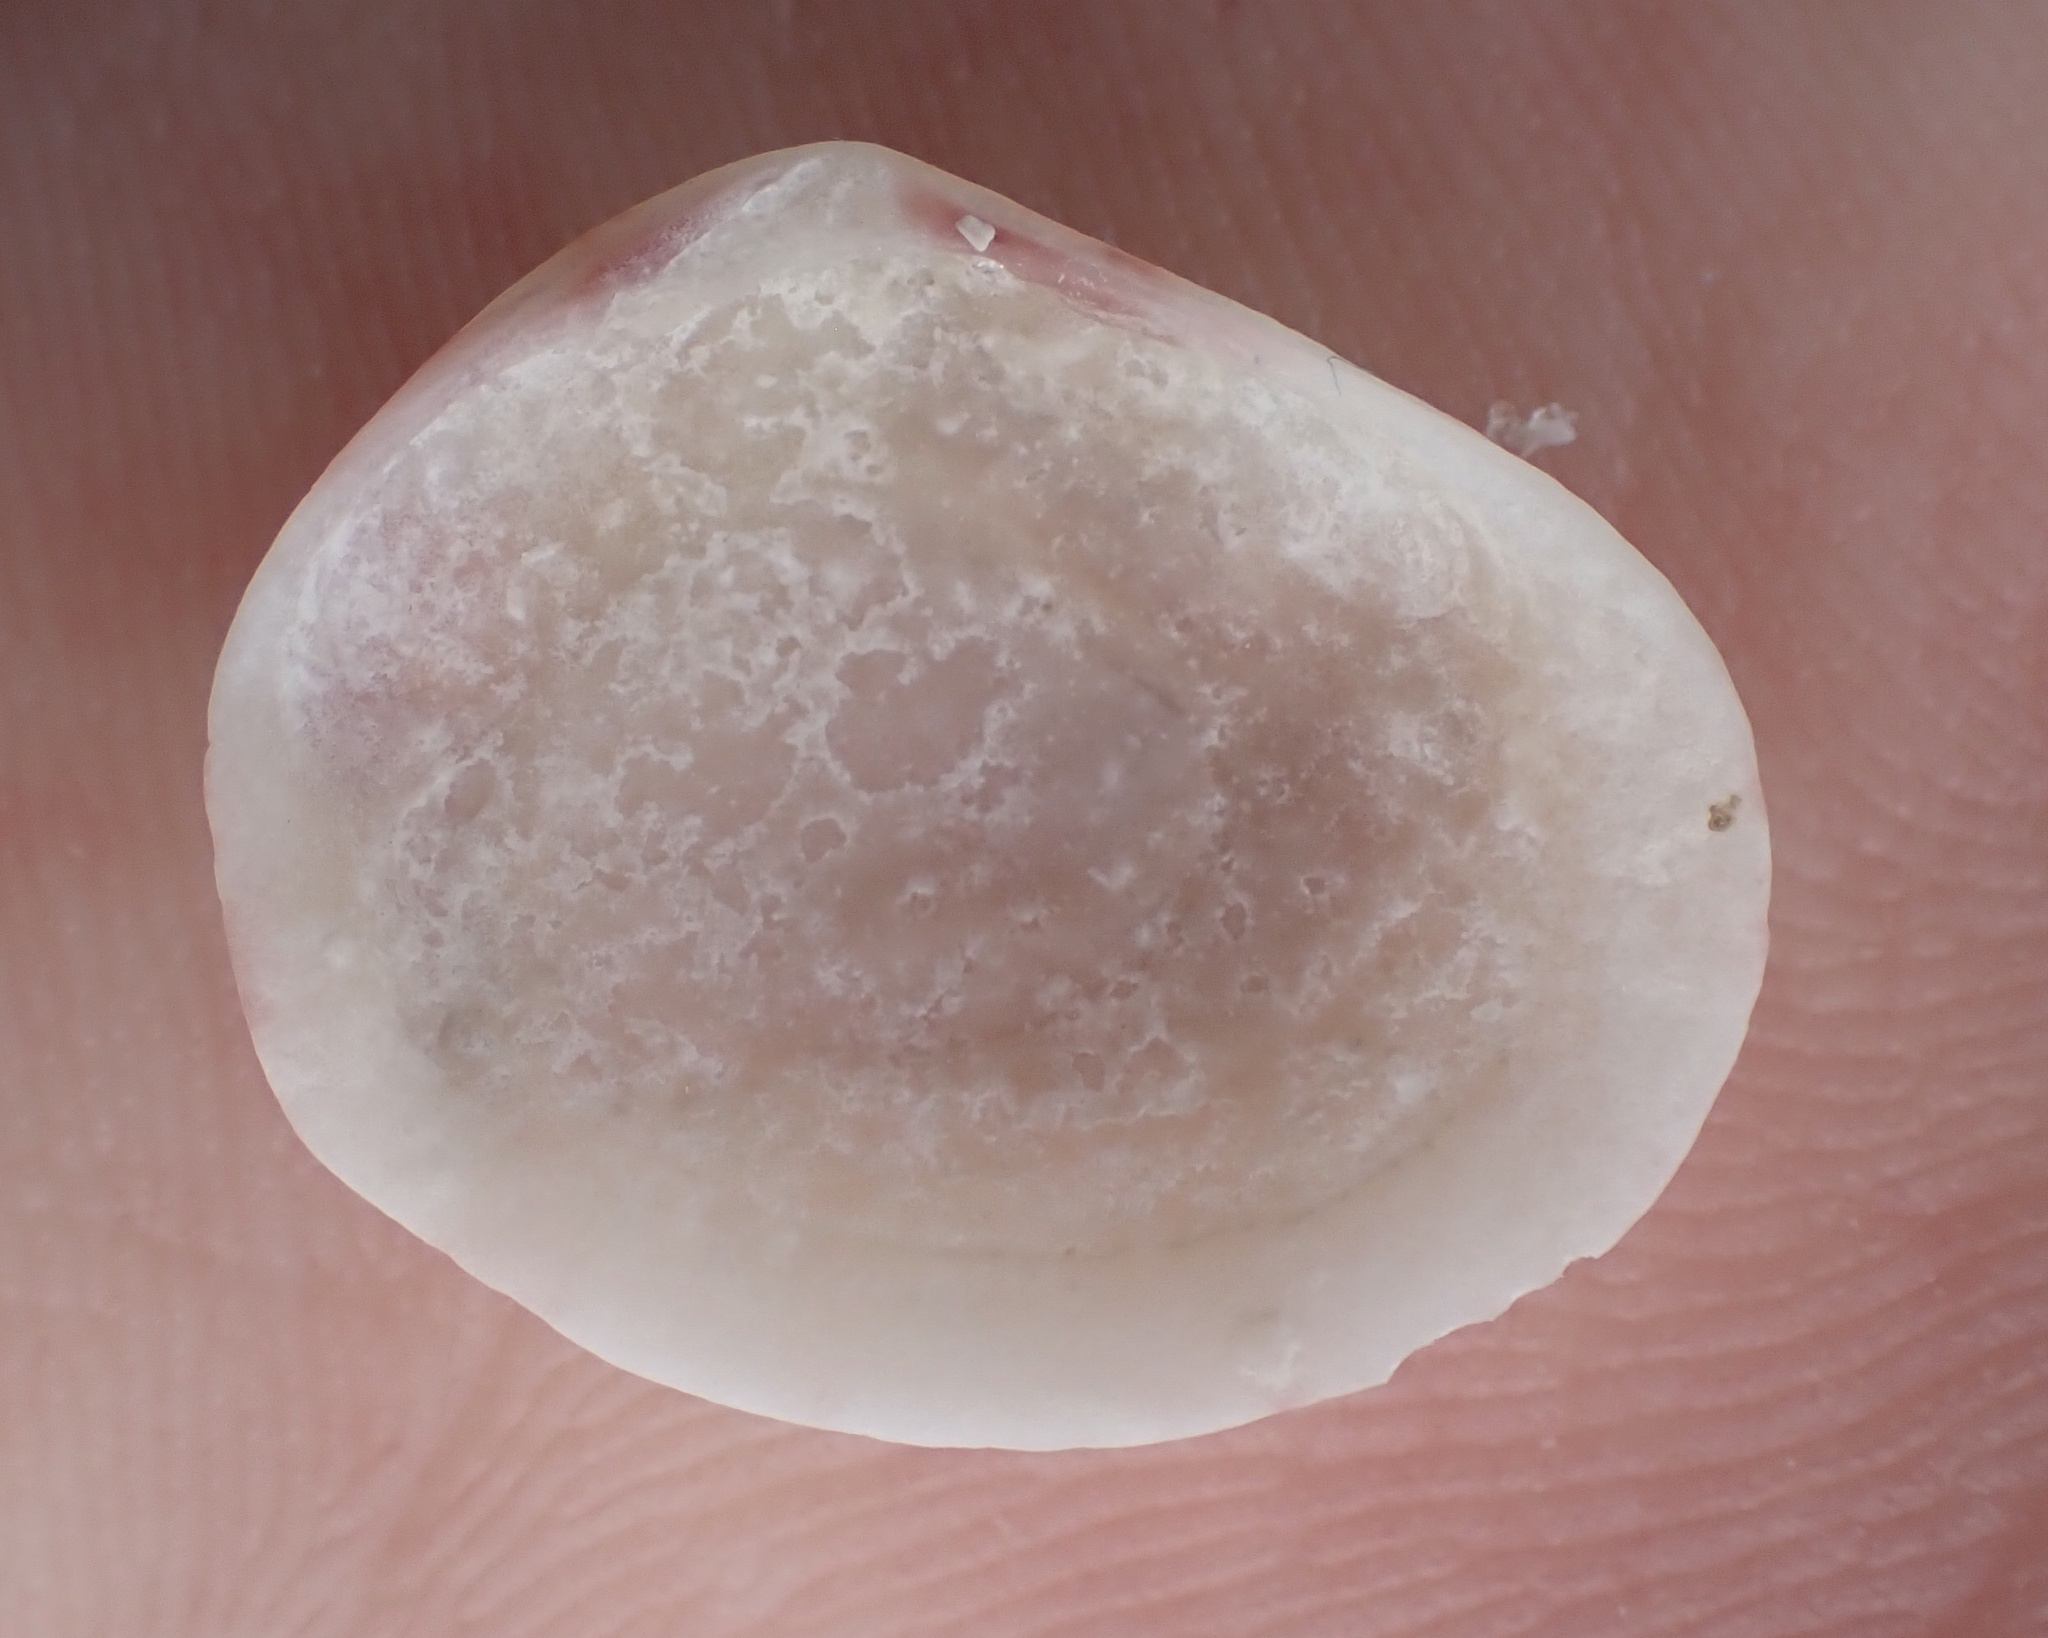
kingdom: Animalia
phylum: Mollusca
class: Bivalvia
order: Cardiida
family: Semelidae
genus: Semele
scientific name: Semele bellastriata
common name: Cancellate semele
